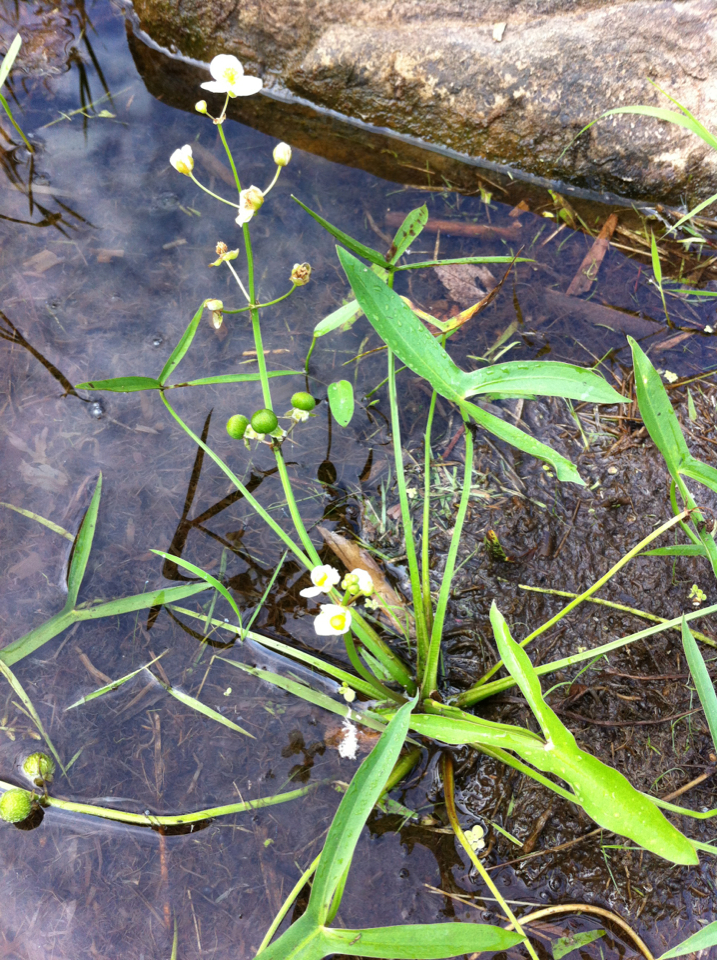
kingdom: Plantae
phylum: Tracheophyta
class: Liliopsida
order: Alismatales
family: Alismataceae
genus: Sagittaria
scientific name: Sagittaria latifolia
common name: Duck-potato
